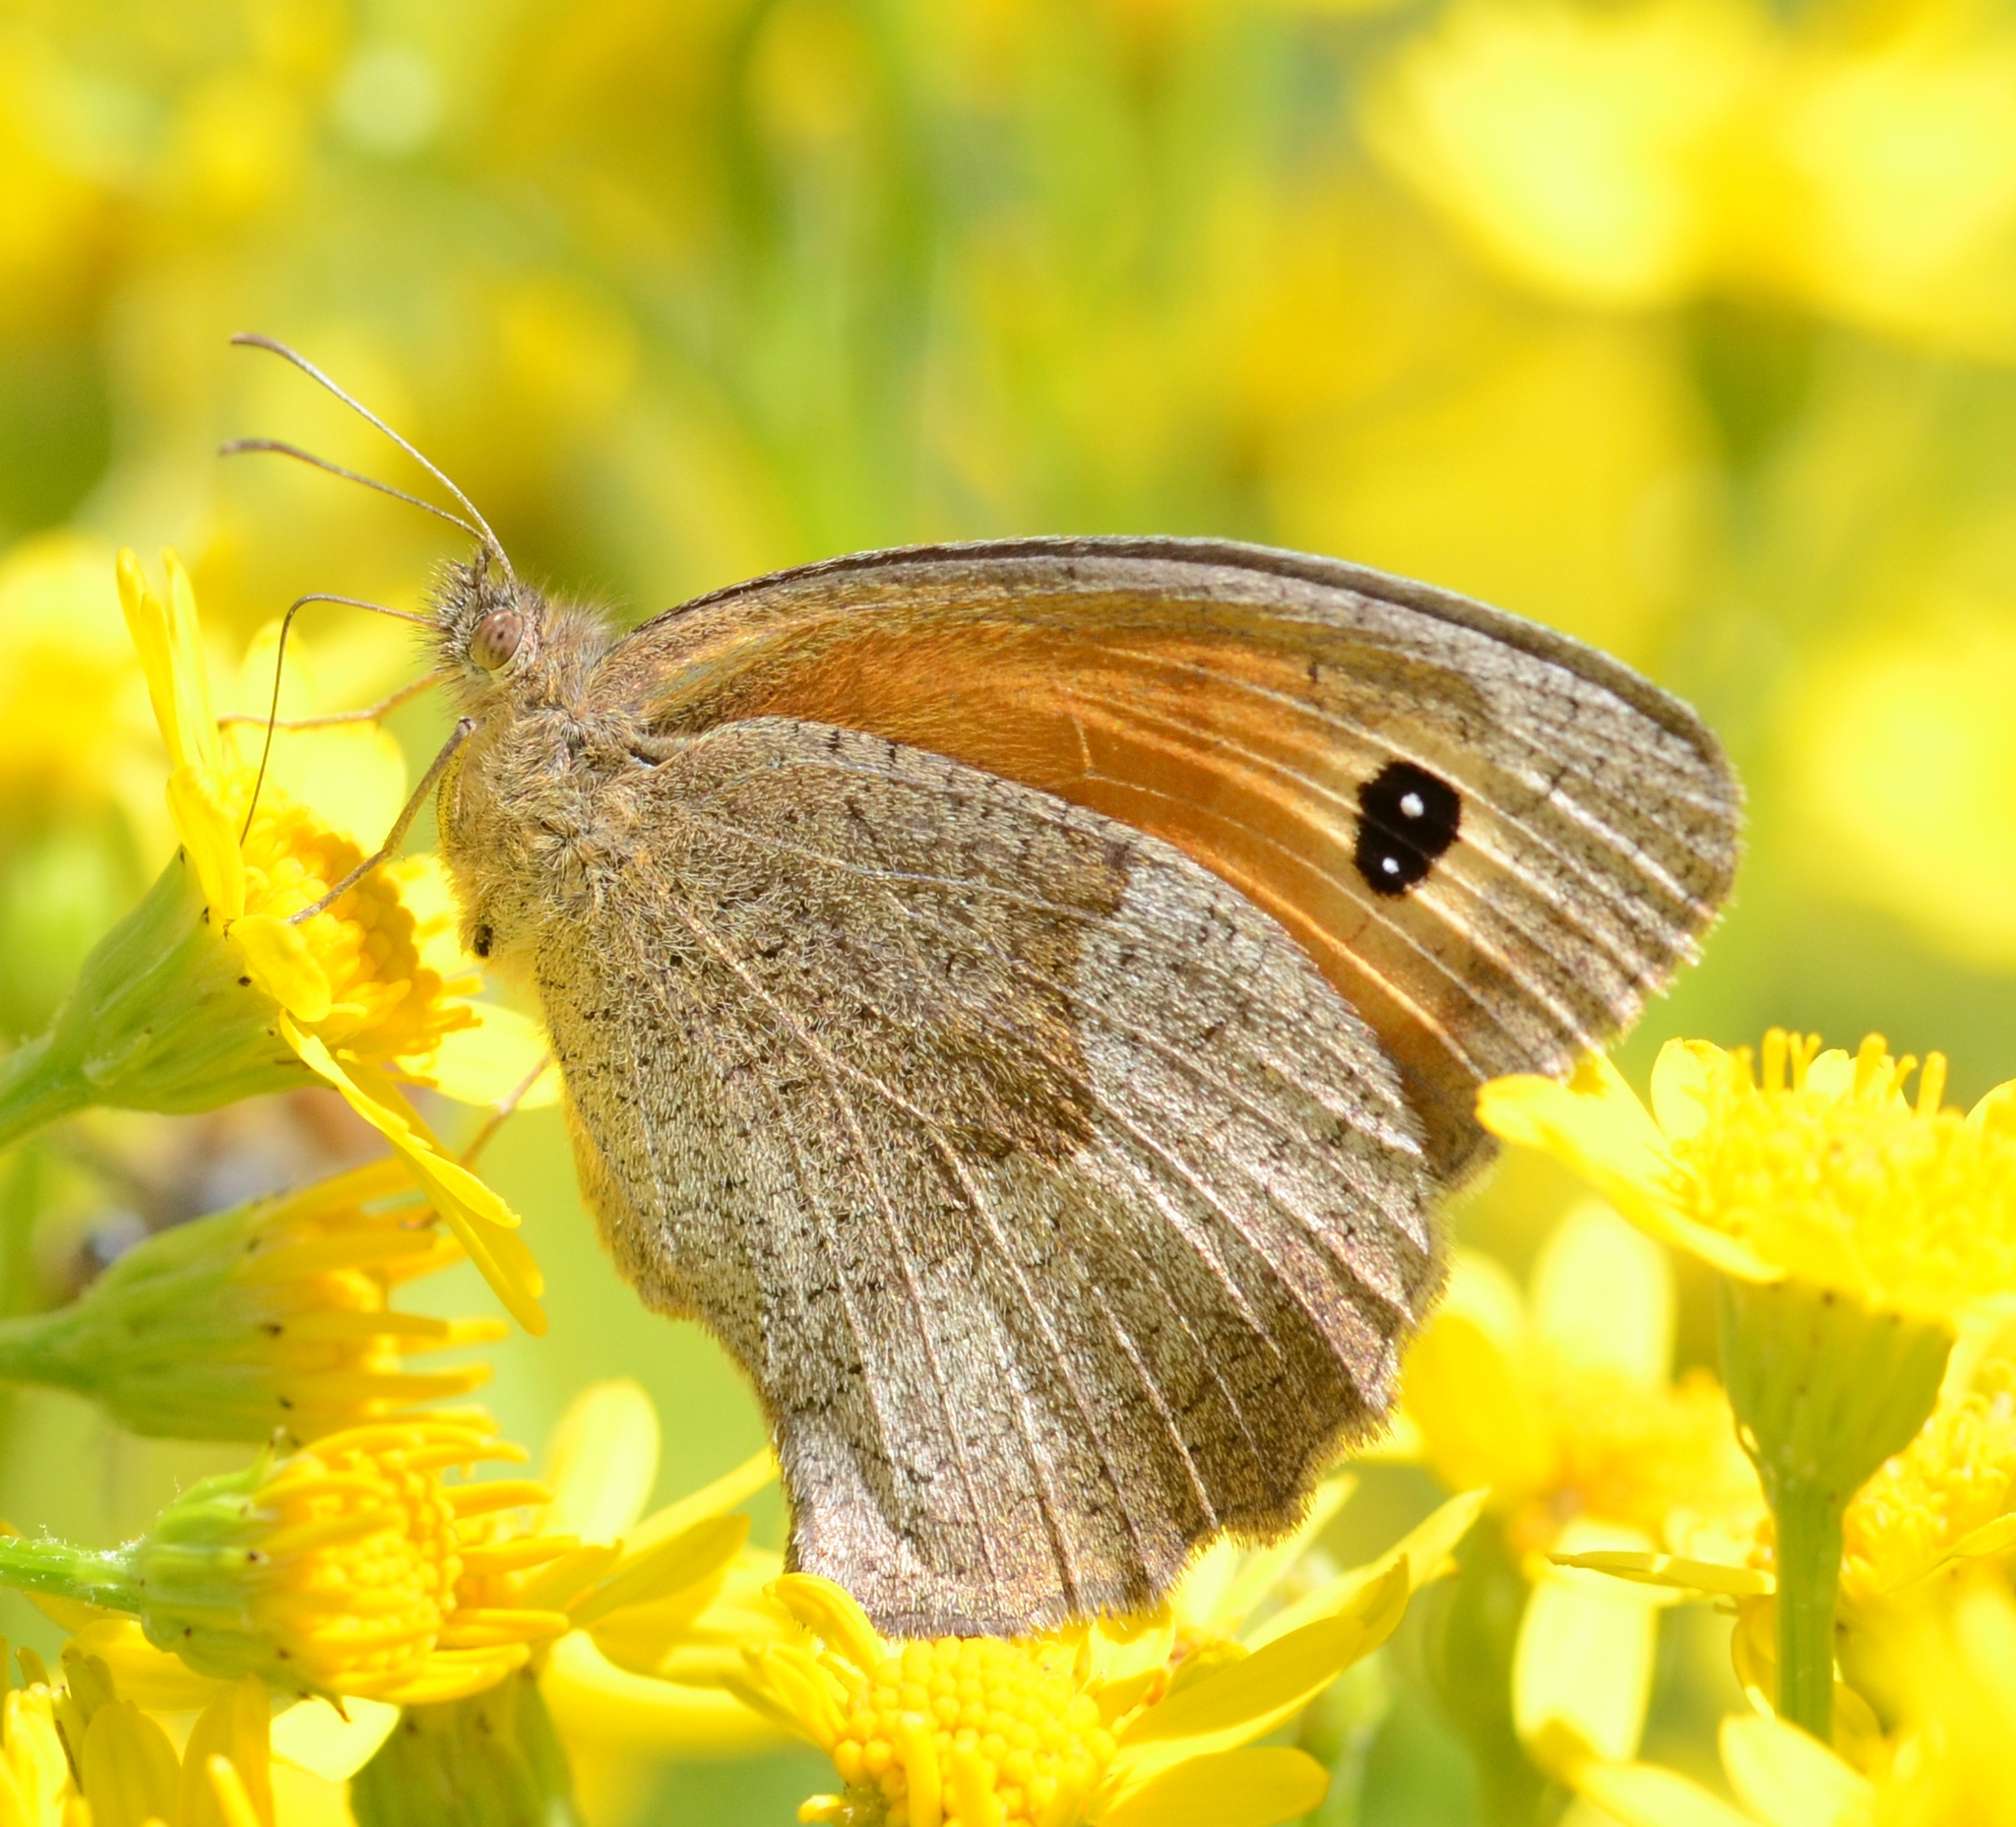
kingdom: Animalia
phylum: Arthropoda
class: Insecta
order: Lepidoptera
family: Nymphalidae
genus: Maniola
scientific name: Maniola jurtina
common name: Meadow brown
